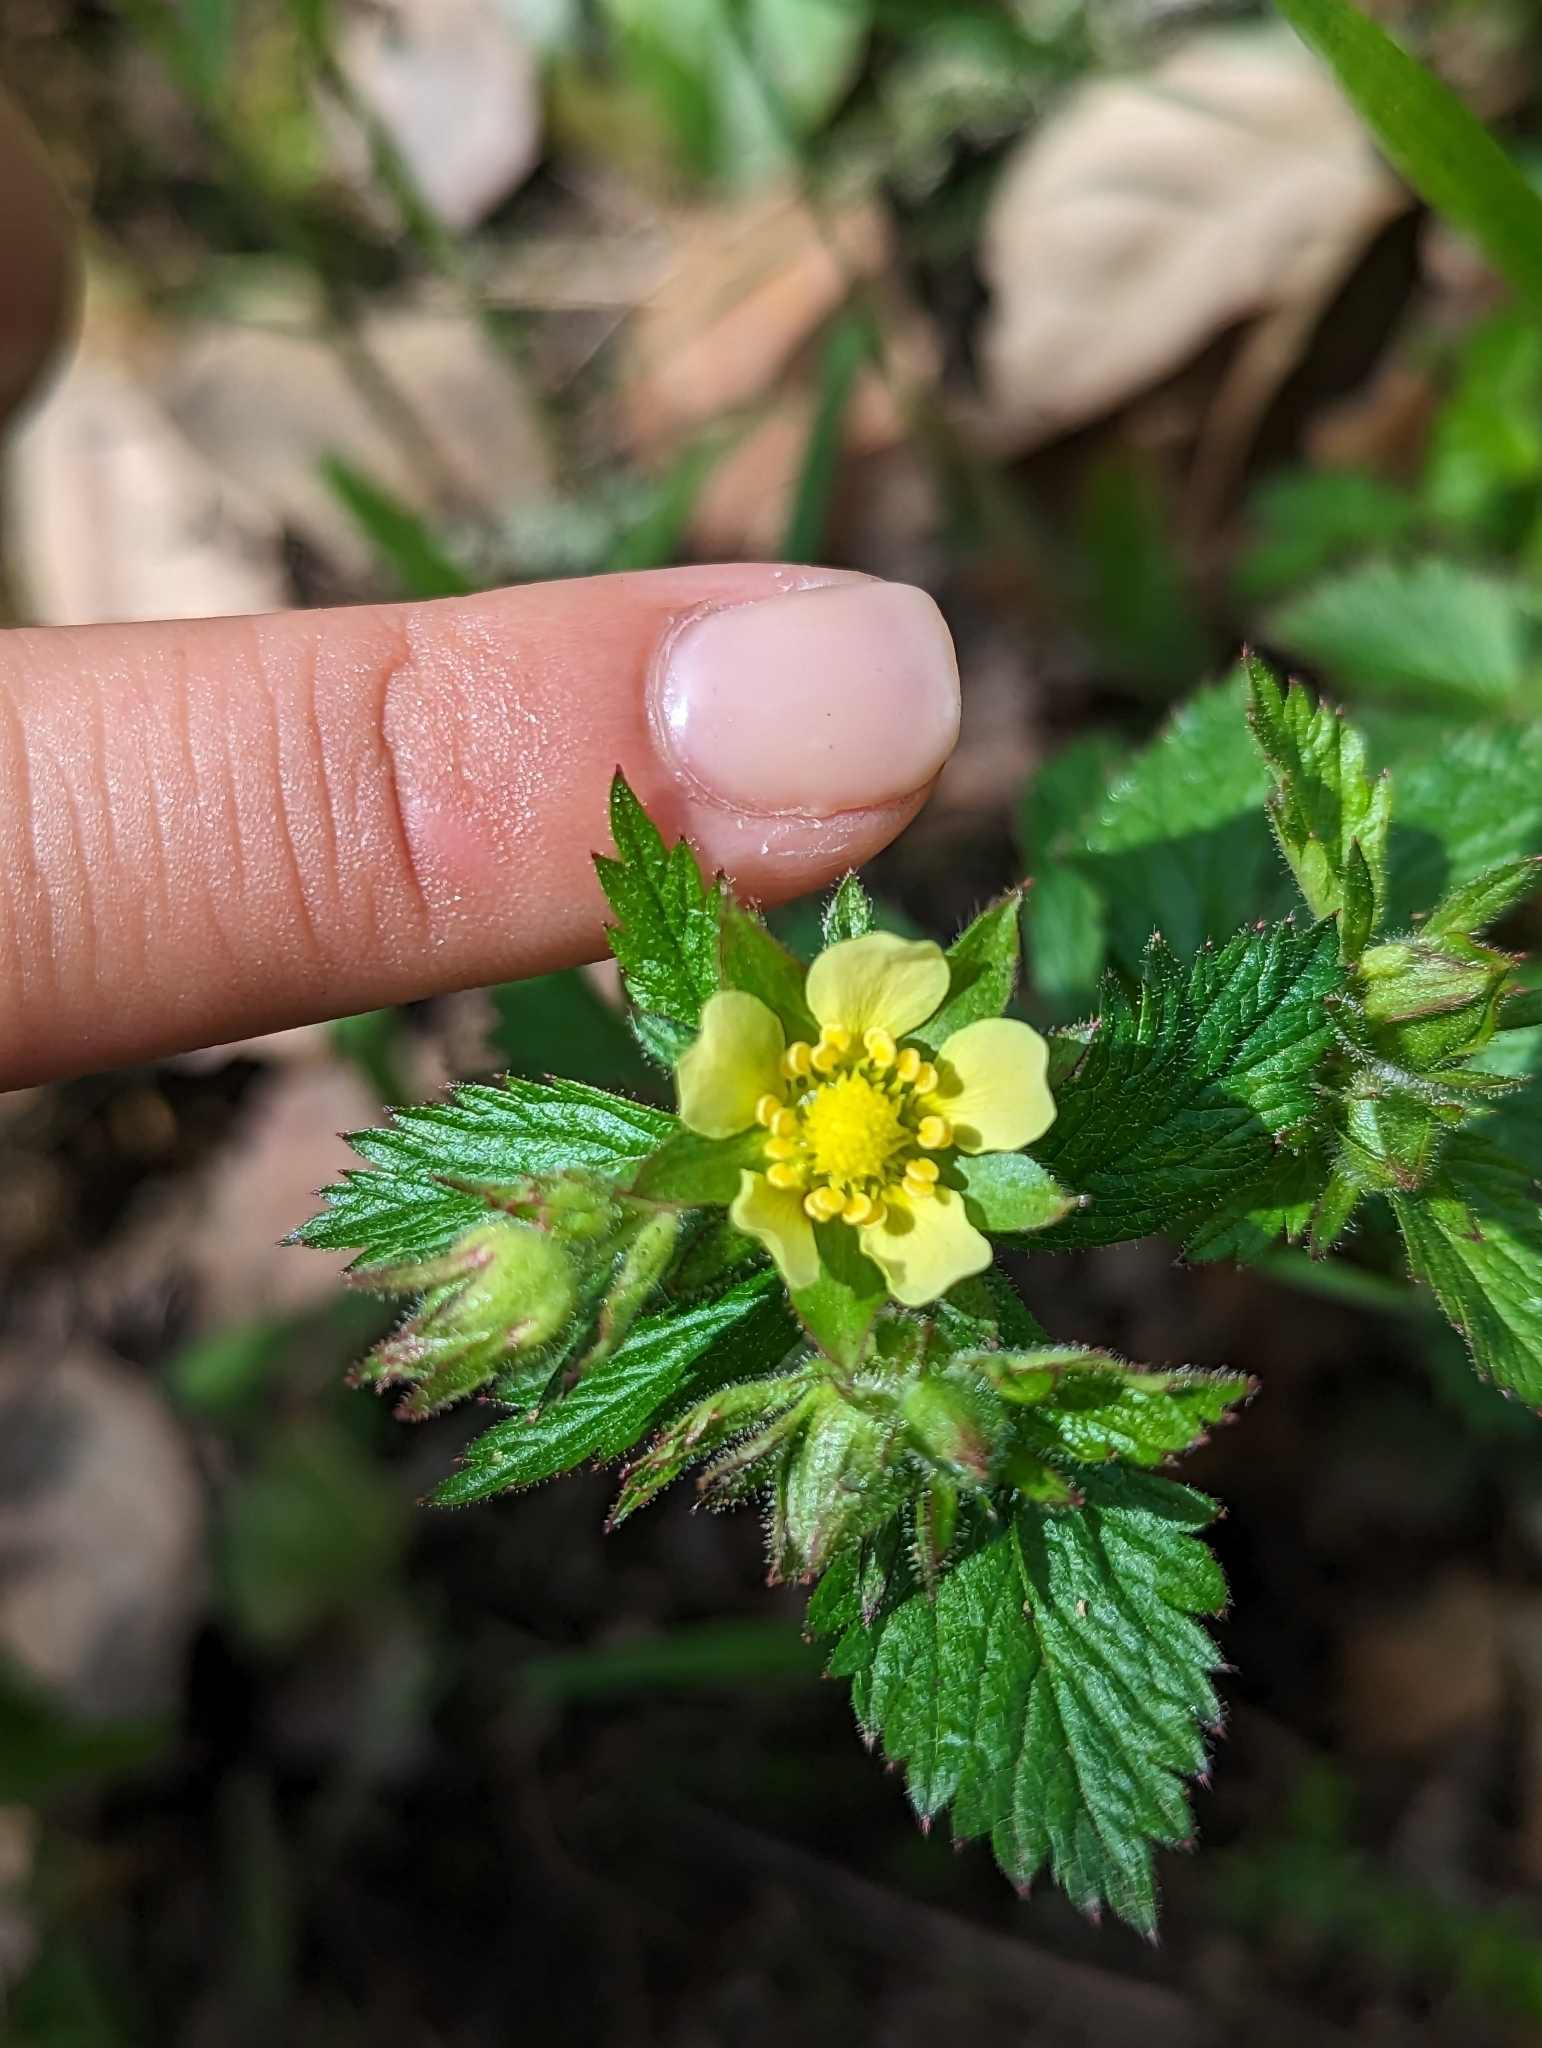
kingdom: Plantae
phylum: Tracheophyta
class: Magnoliopsida
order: Rosales
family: Rosaceae
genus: Drymocallis
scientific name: Drymocallis glandulosa
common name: Sticky cinquefoil
